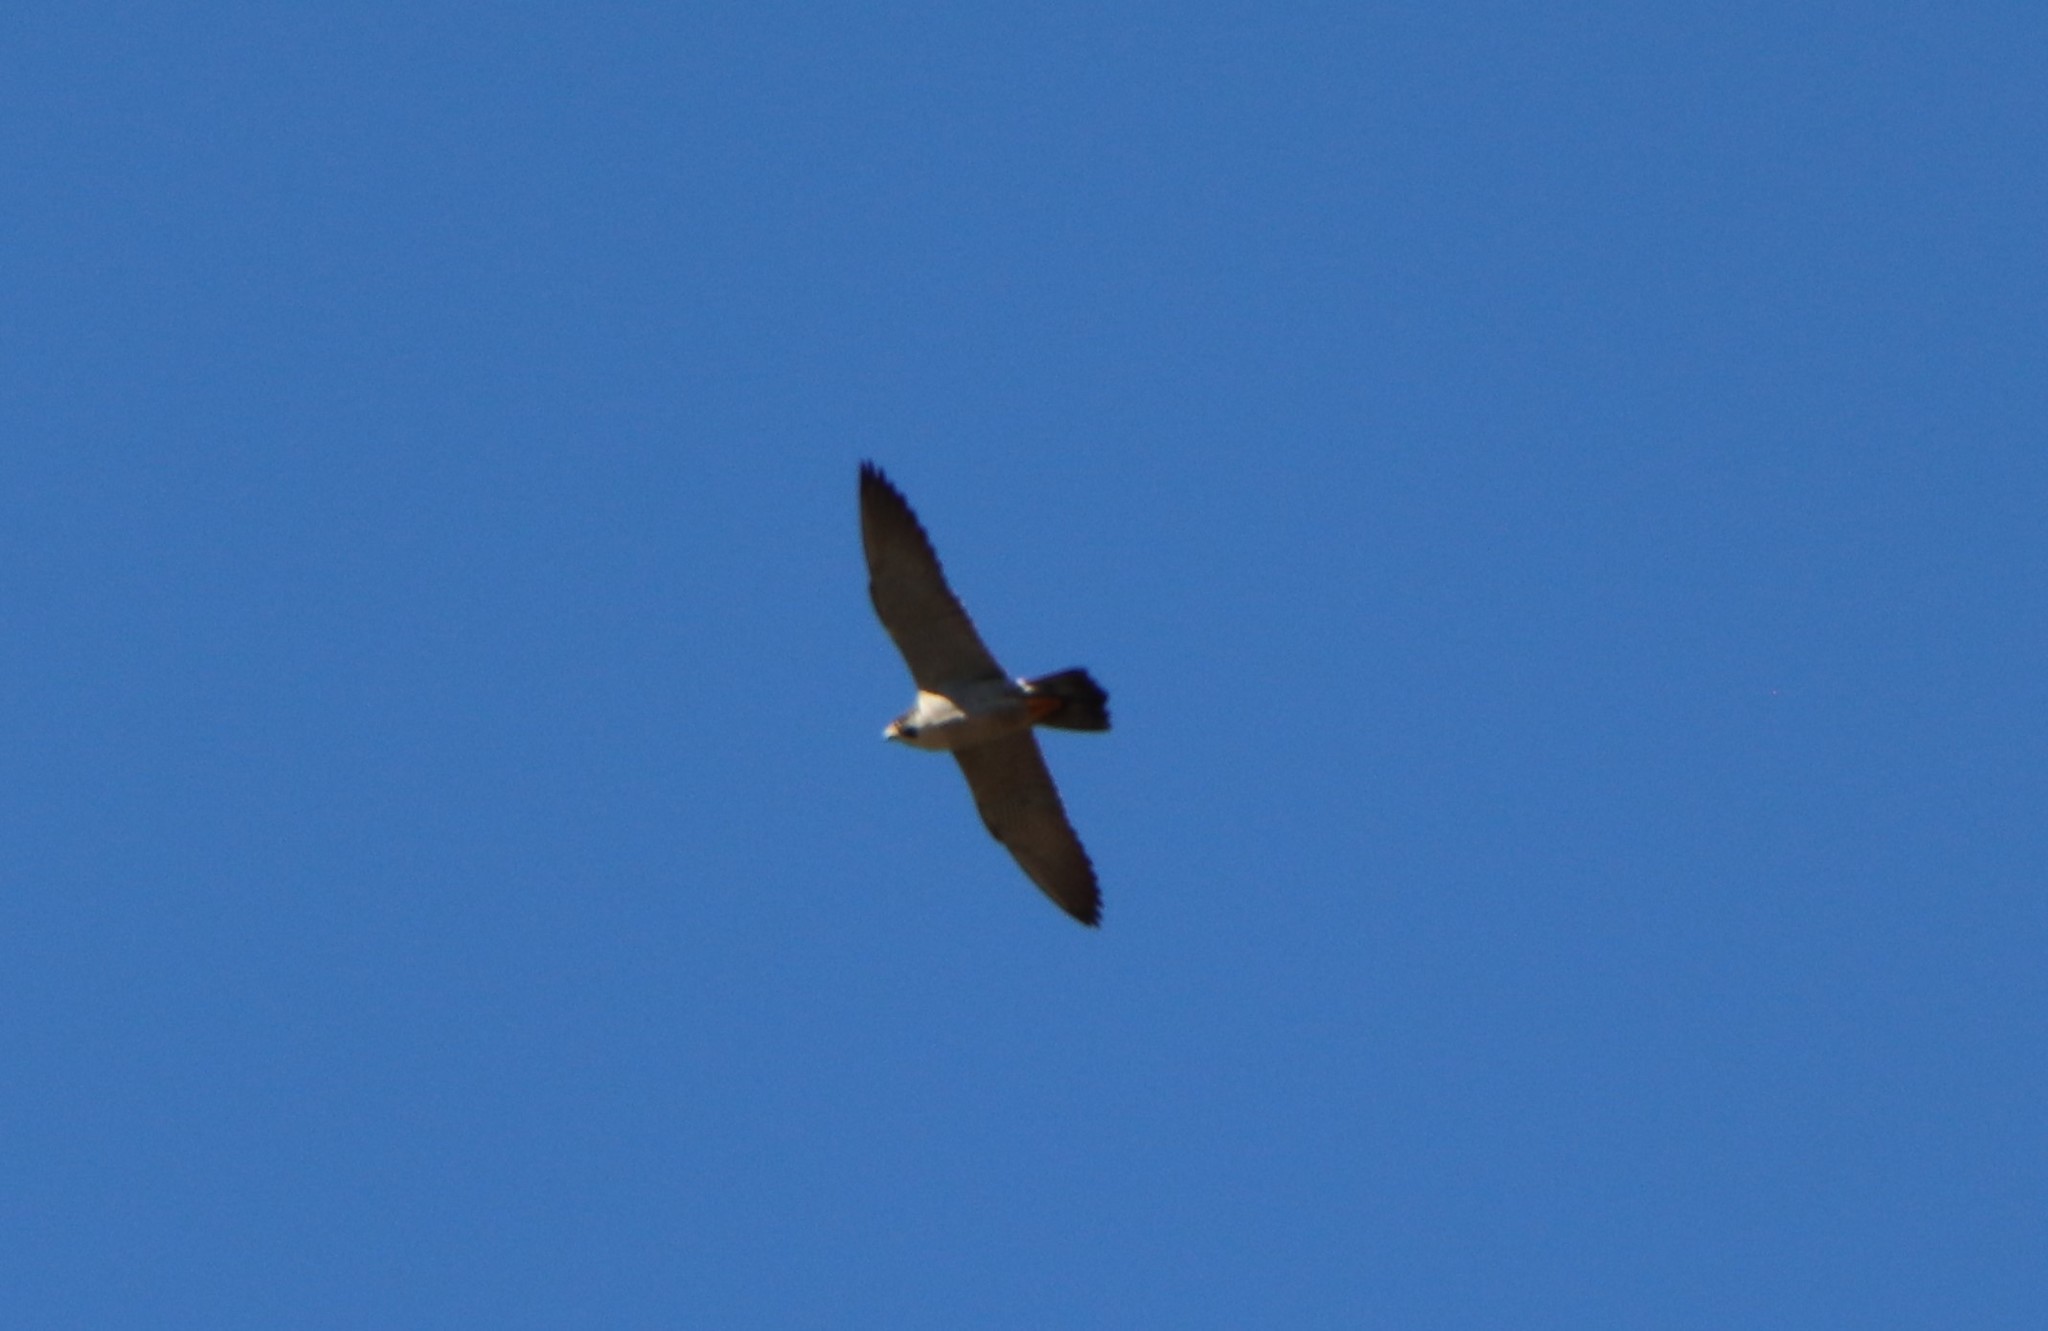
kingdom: Animalia
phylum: Chordata
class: Aves
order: Falconiformes
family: Falconidae
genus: Falco
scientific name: Falco peregrinus
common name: Peregrine falcon
